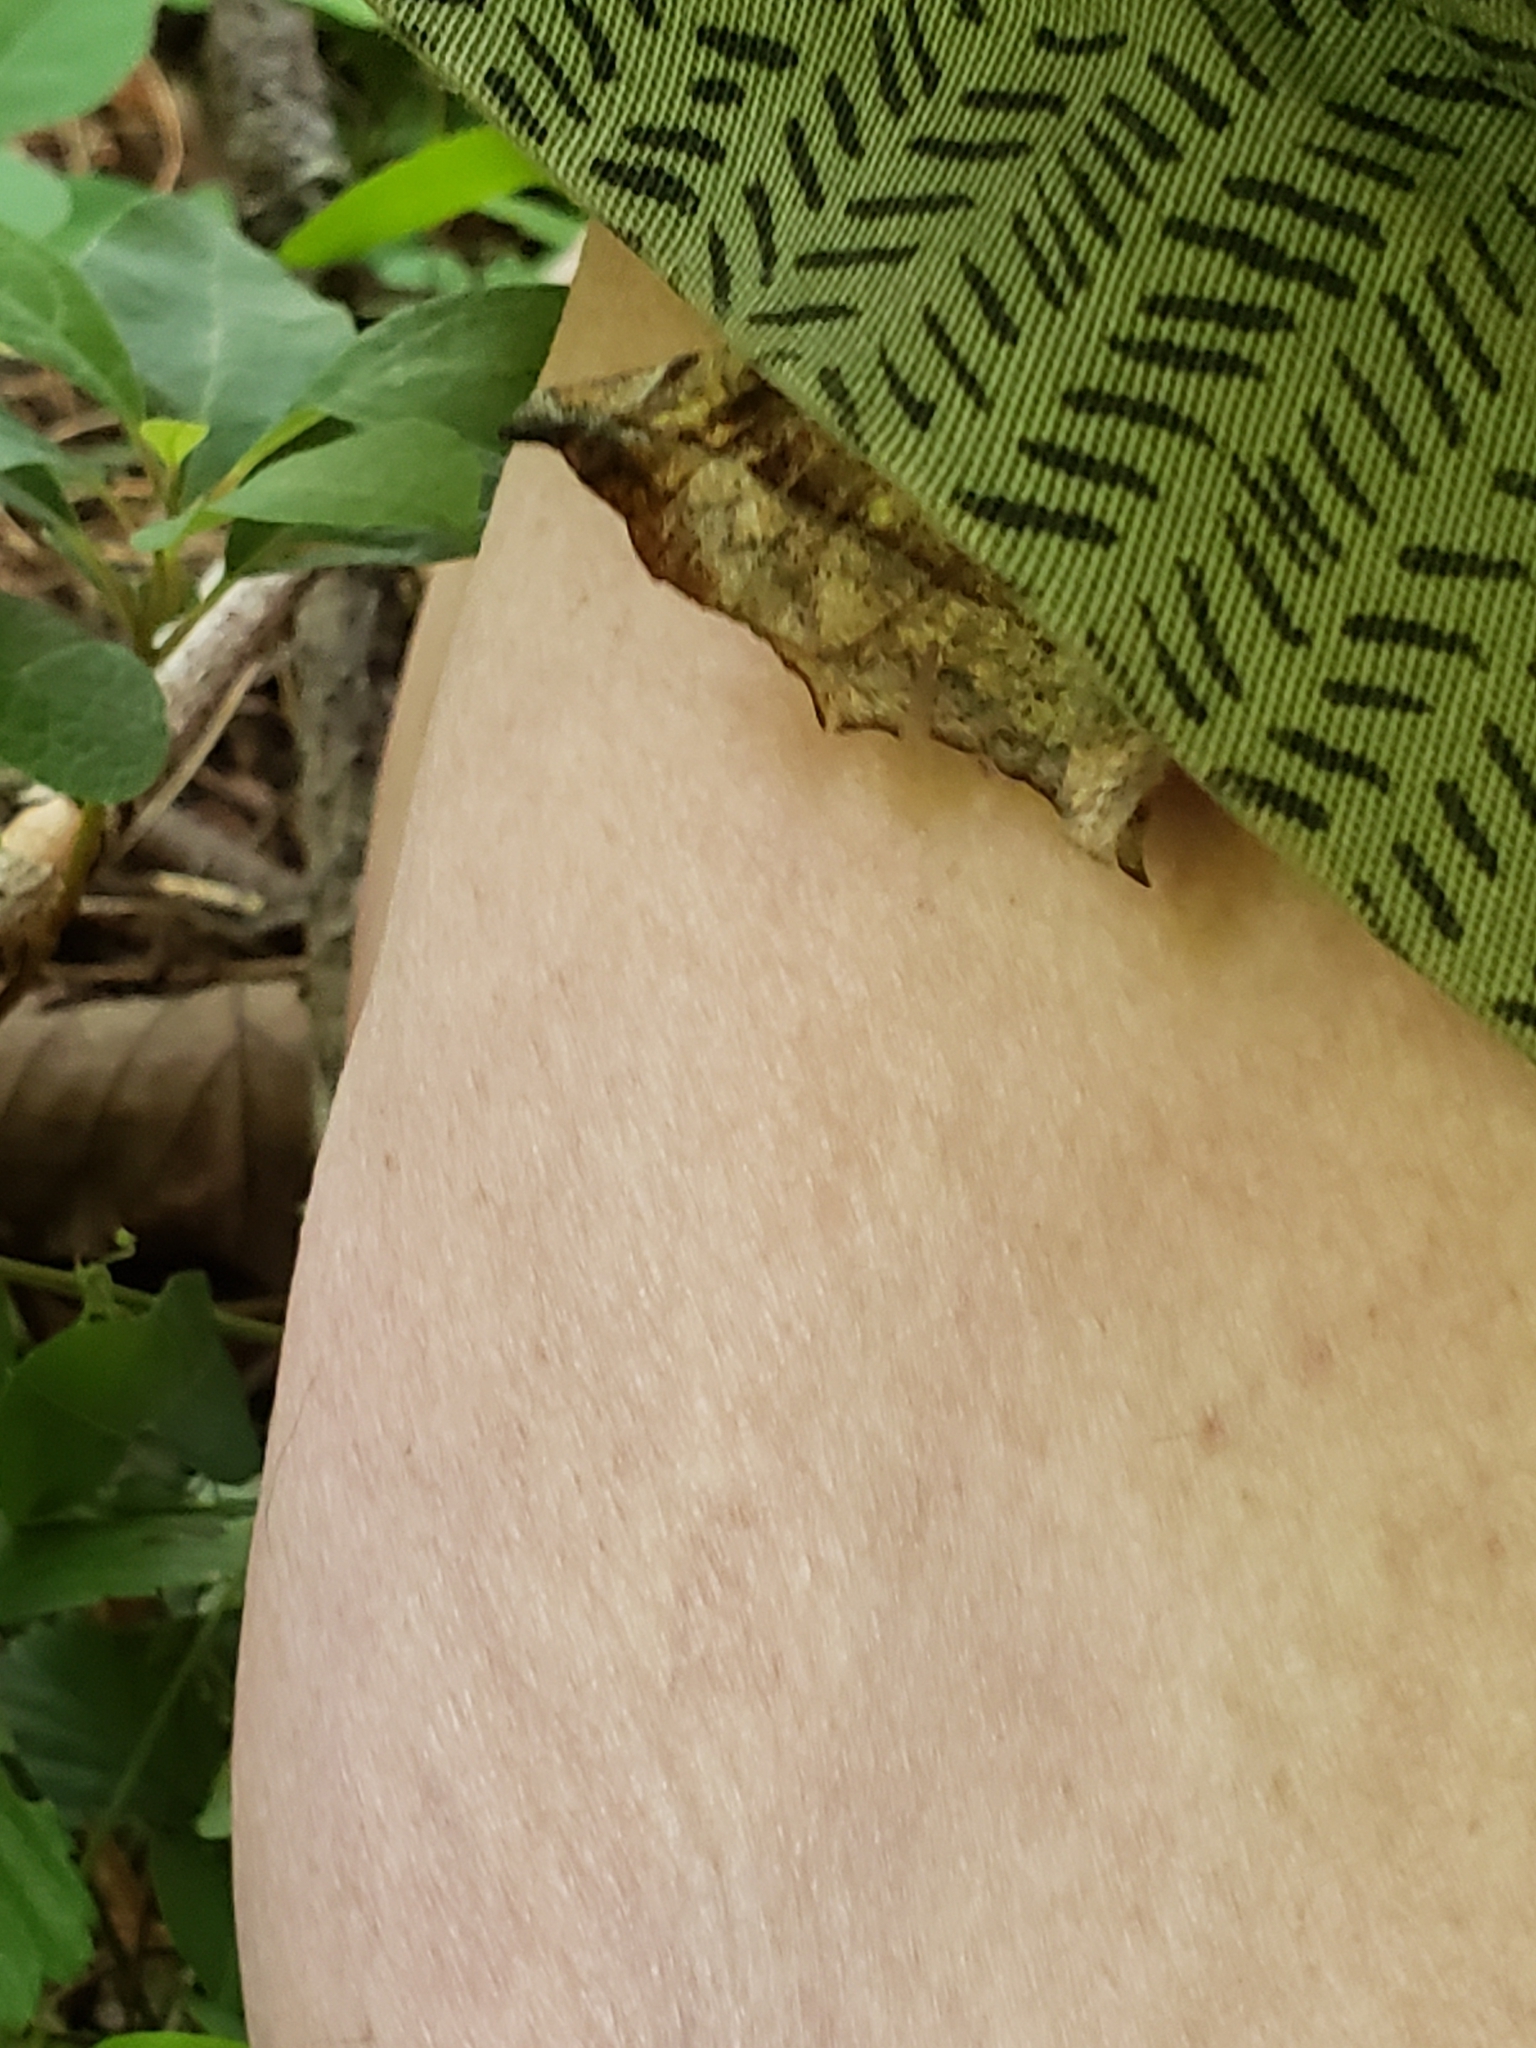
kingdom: Animalia
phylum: Arthropoda
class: Insecta
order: Lepidoptera
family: Geometridae
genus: Eutrapela
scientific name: Eutrapela clemataria
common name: Curved-toothed geometer
